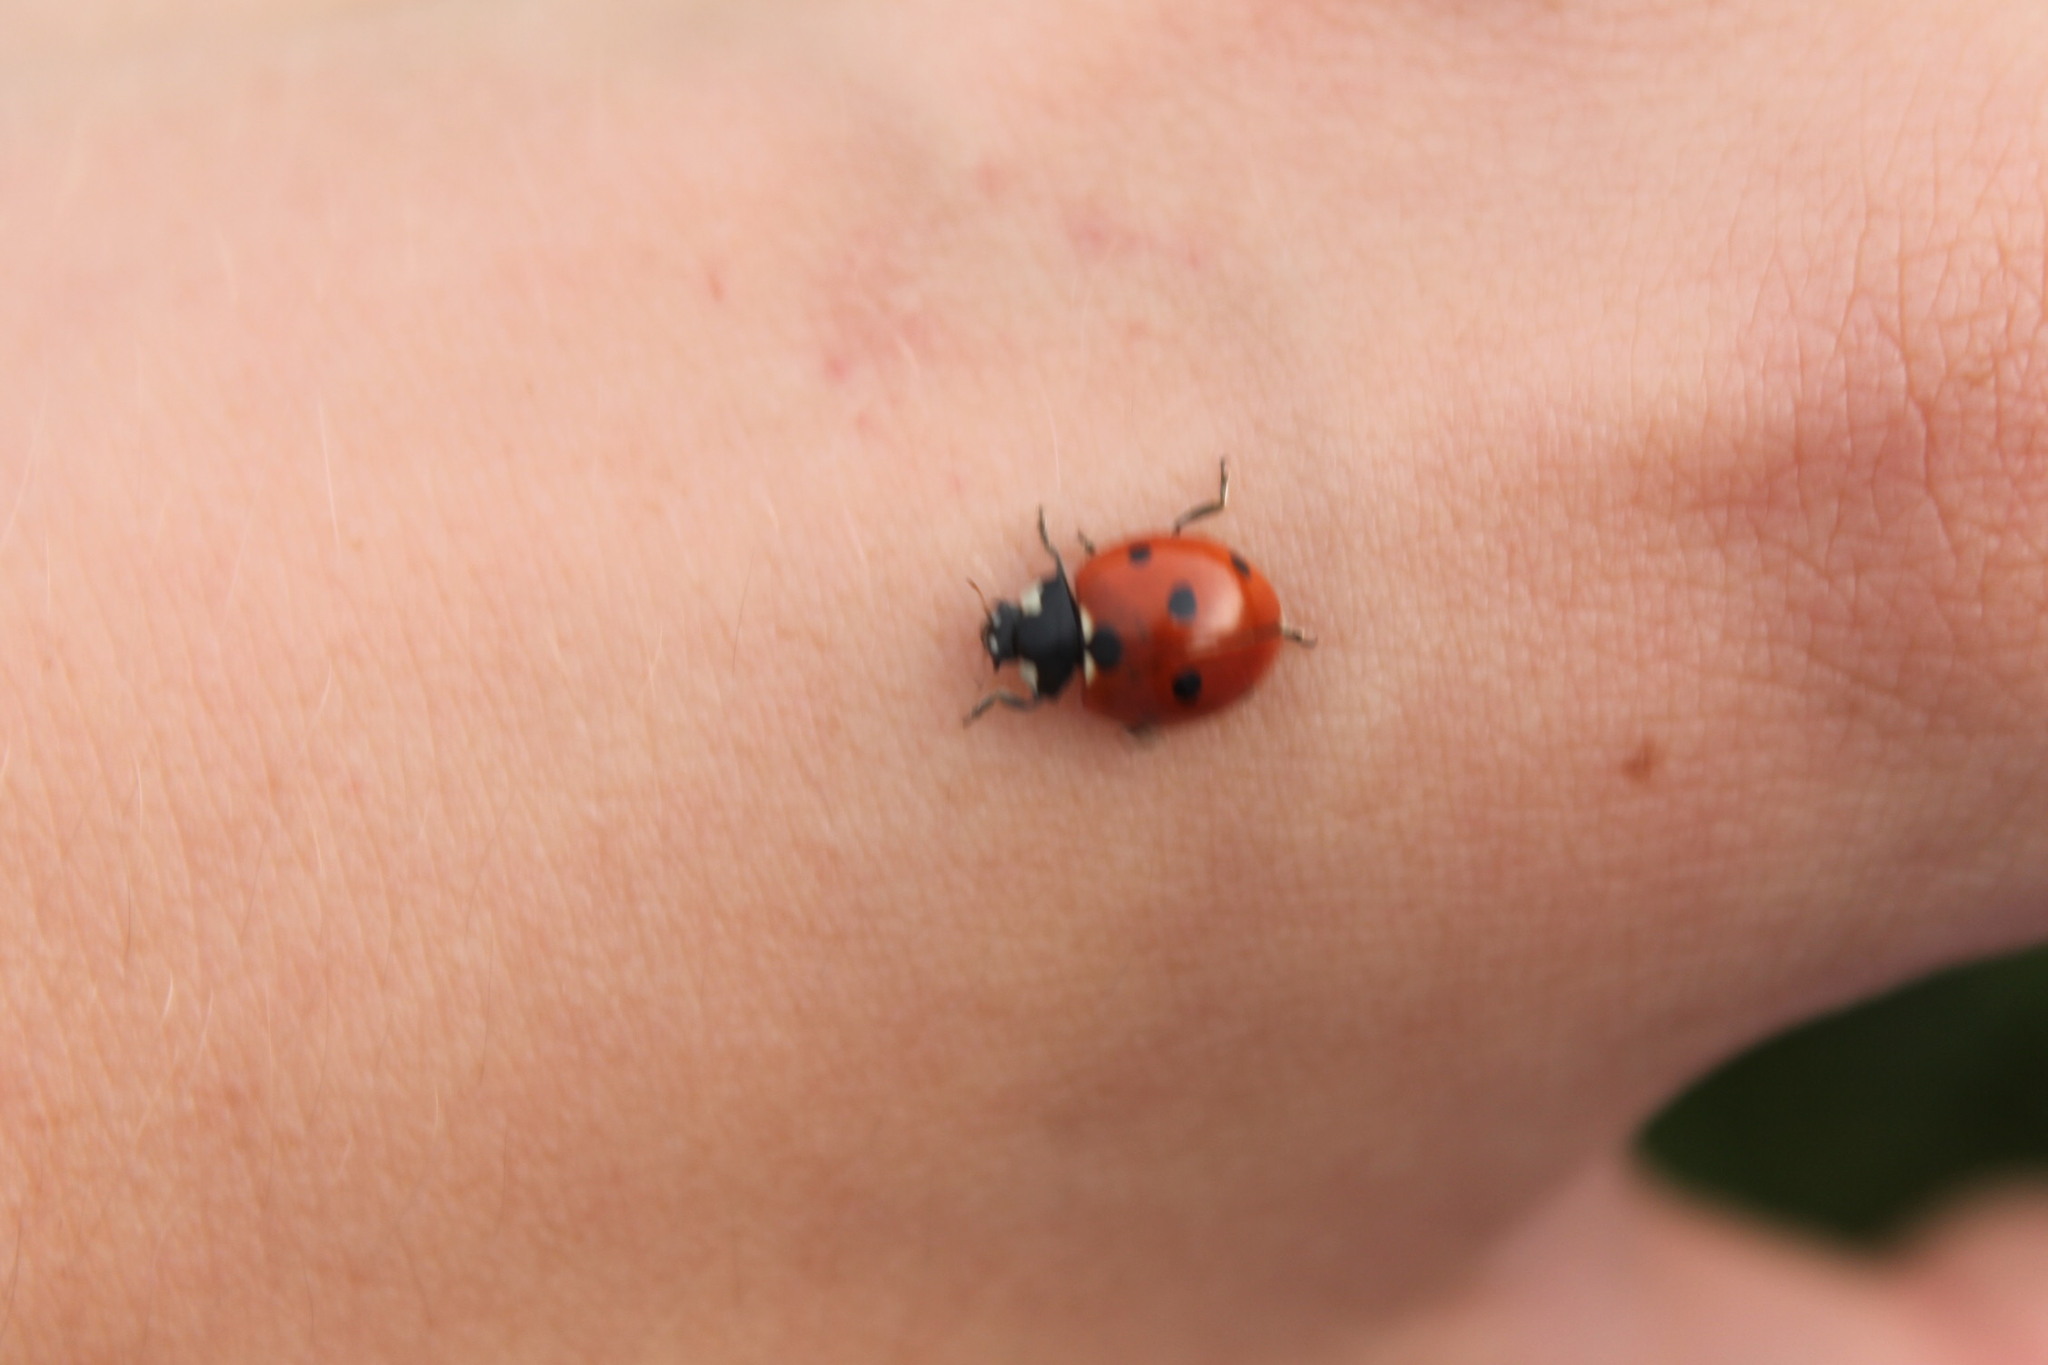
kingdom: Animalia
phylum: Arthropoda
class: Insecta
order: Coleoptera
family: Coccinellidae
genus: Coccinella
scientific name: Coccinella septempunctata
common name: Sevenspotted lady beetle
